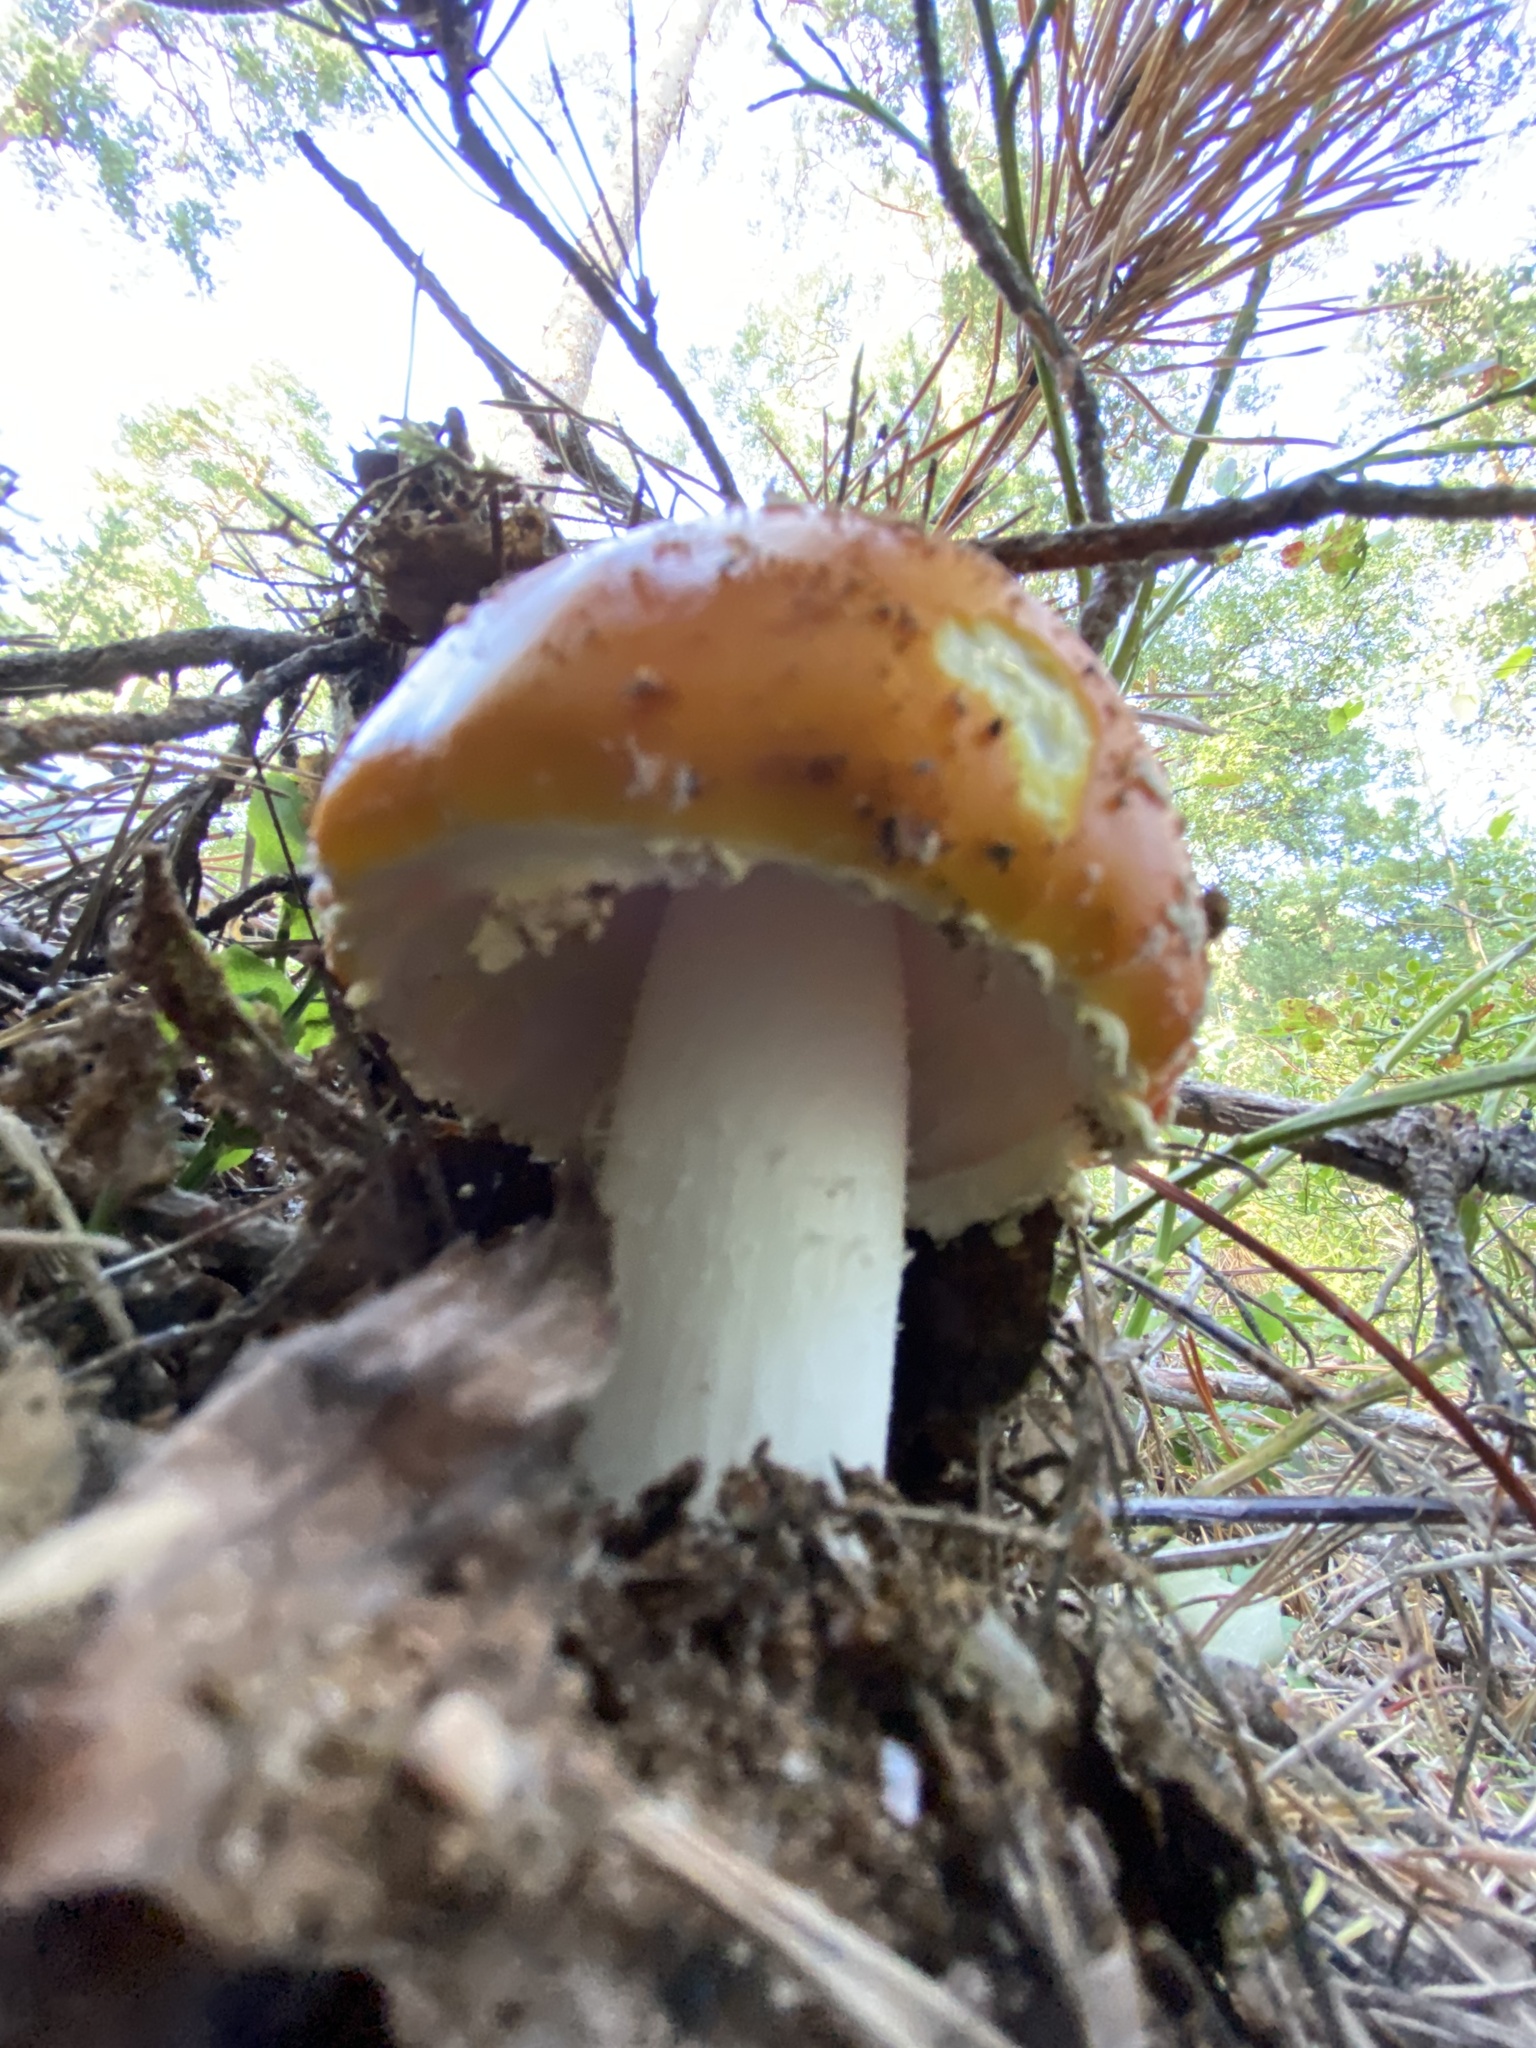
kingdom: Fungi
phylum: Basidiomycota
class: Agaricomycetes
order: Agaricales
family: Amanitaceae
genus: Amanita
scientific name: Amanita muscaria
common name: Fly agaric
